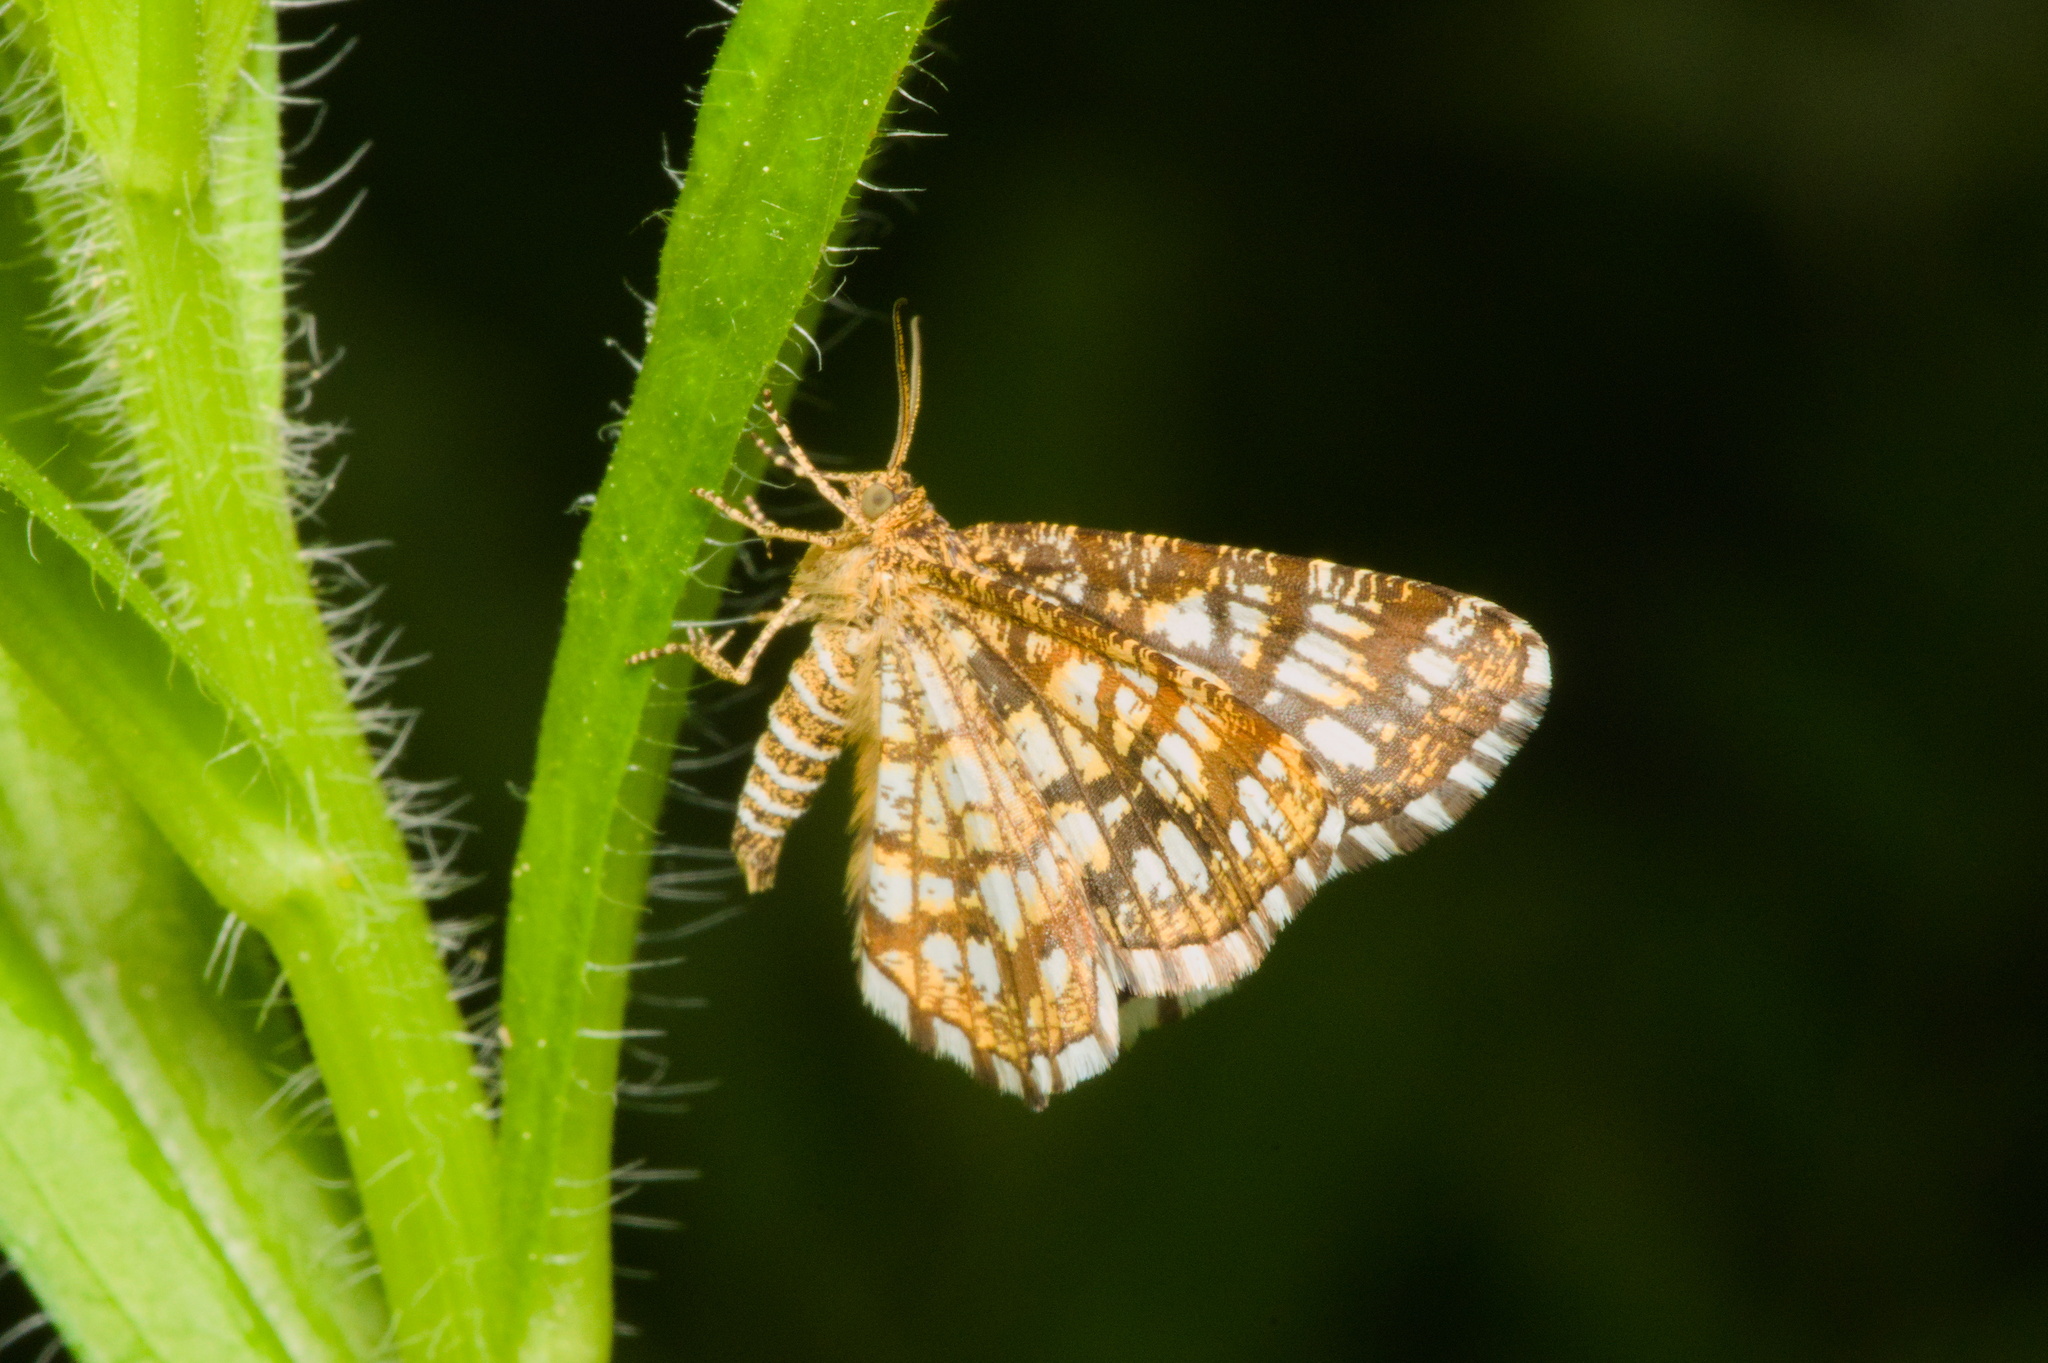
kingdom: Animalia
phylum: Arthropoda
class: Insecta
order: Lepidoptera
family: Geometridae
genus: Chiasmia
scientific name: Chiasmia clathrata
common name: Latticed heath
